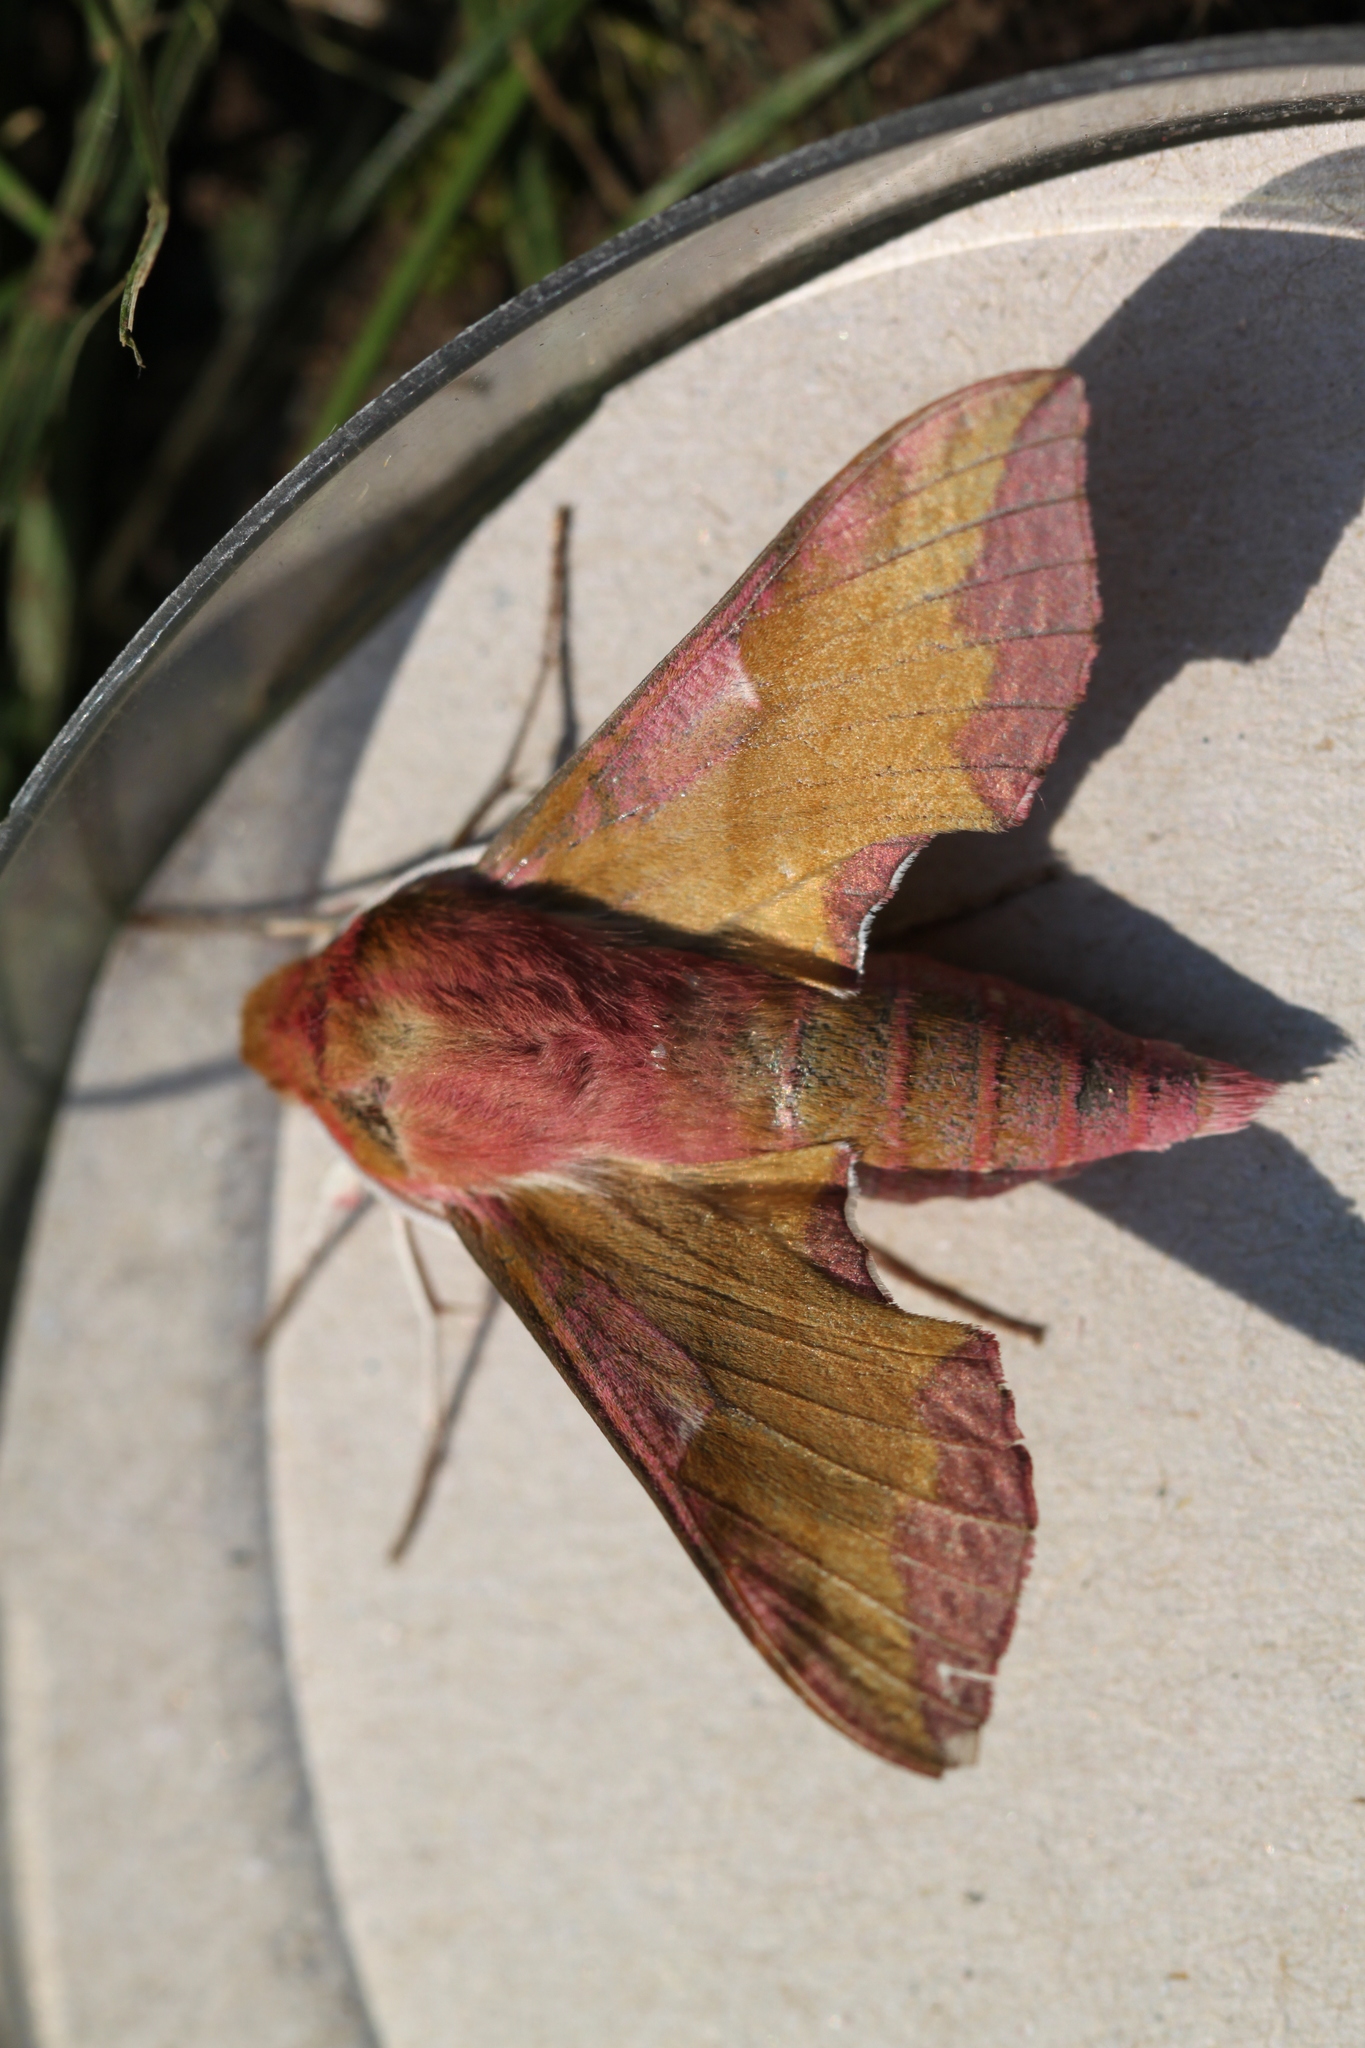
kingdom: Animalia
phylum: Arthropoda
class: Insecta
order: Lepidoptera
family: Sphingidae
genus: Deilephila
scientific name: Deilephila porcellus
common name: Small elephant hawk-moth
